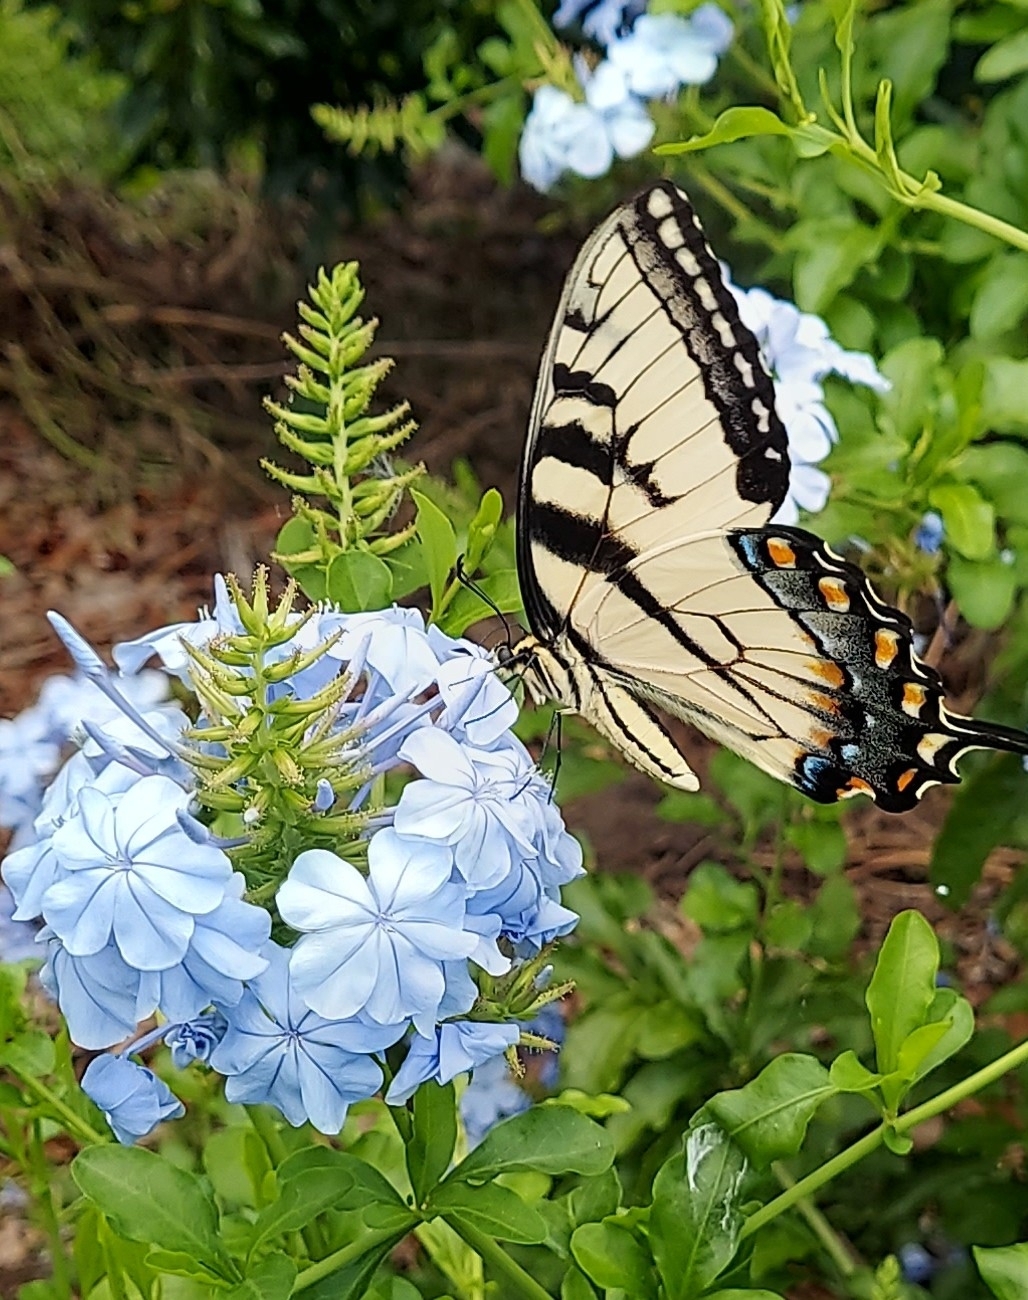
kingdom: Animalia
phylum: Arthropoda
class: Insecta
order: Lepidoptera
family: Papilionidae
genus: Papilio
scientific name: Papilio glaucus
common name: Tiger swallowtail
